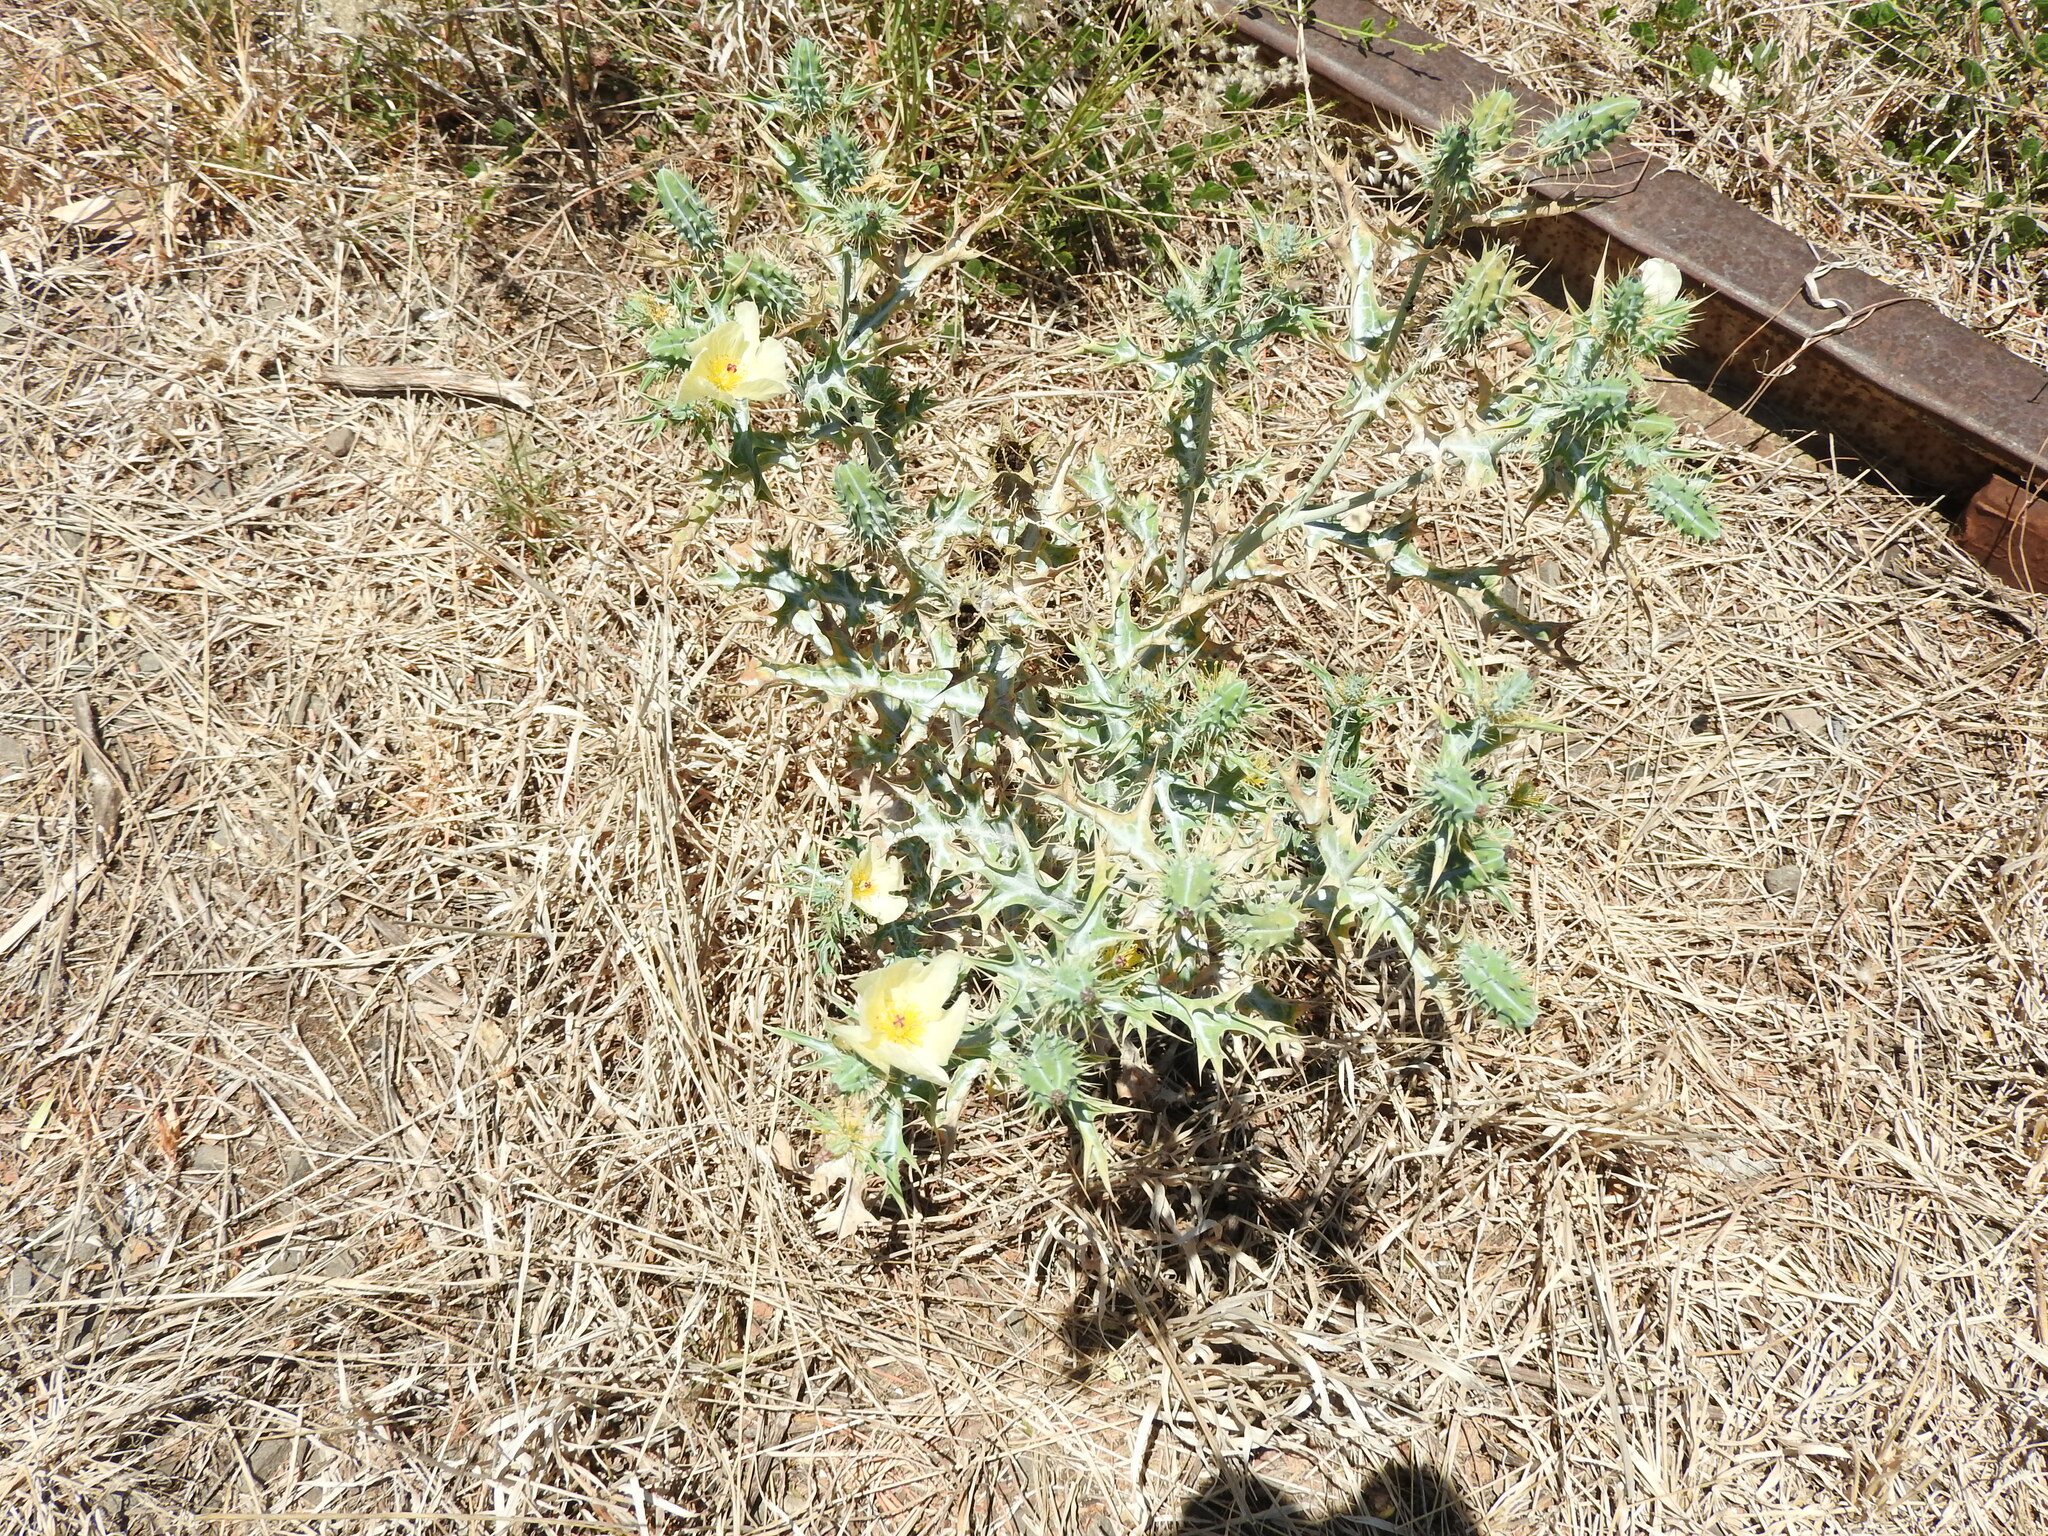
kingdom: Plantae
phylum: Tracheophyta
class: Magnoliopsida
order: Ranunculales
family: Papaveraceae
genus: Argemone
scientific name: Argemone ochroleuca
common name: White-flower mexican-poppy
